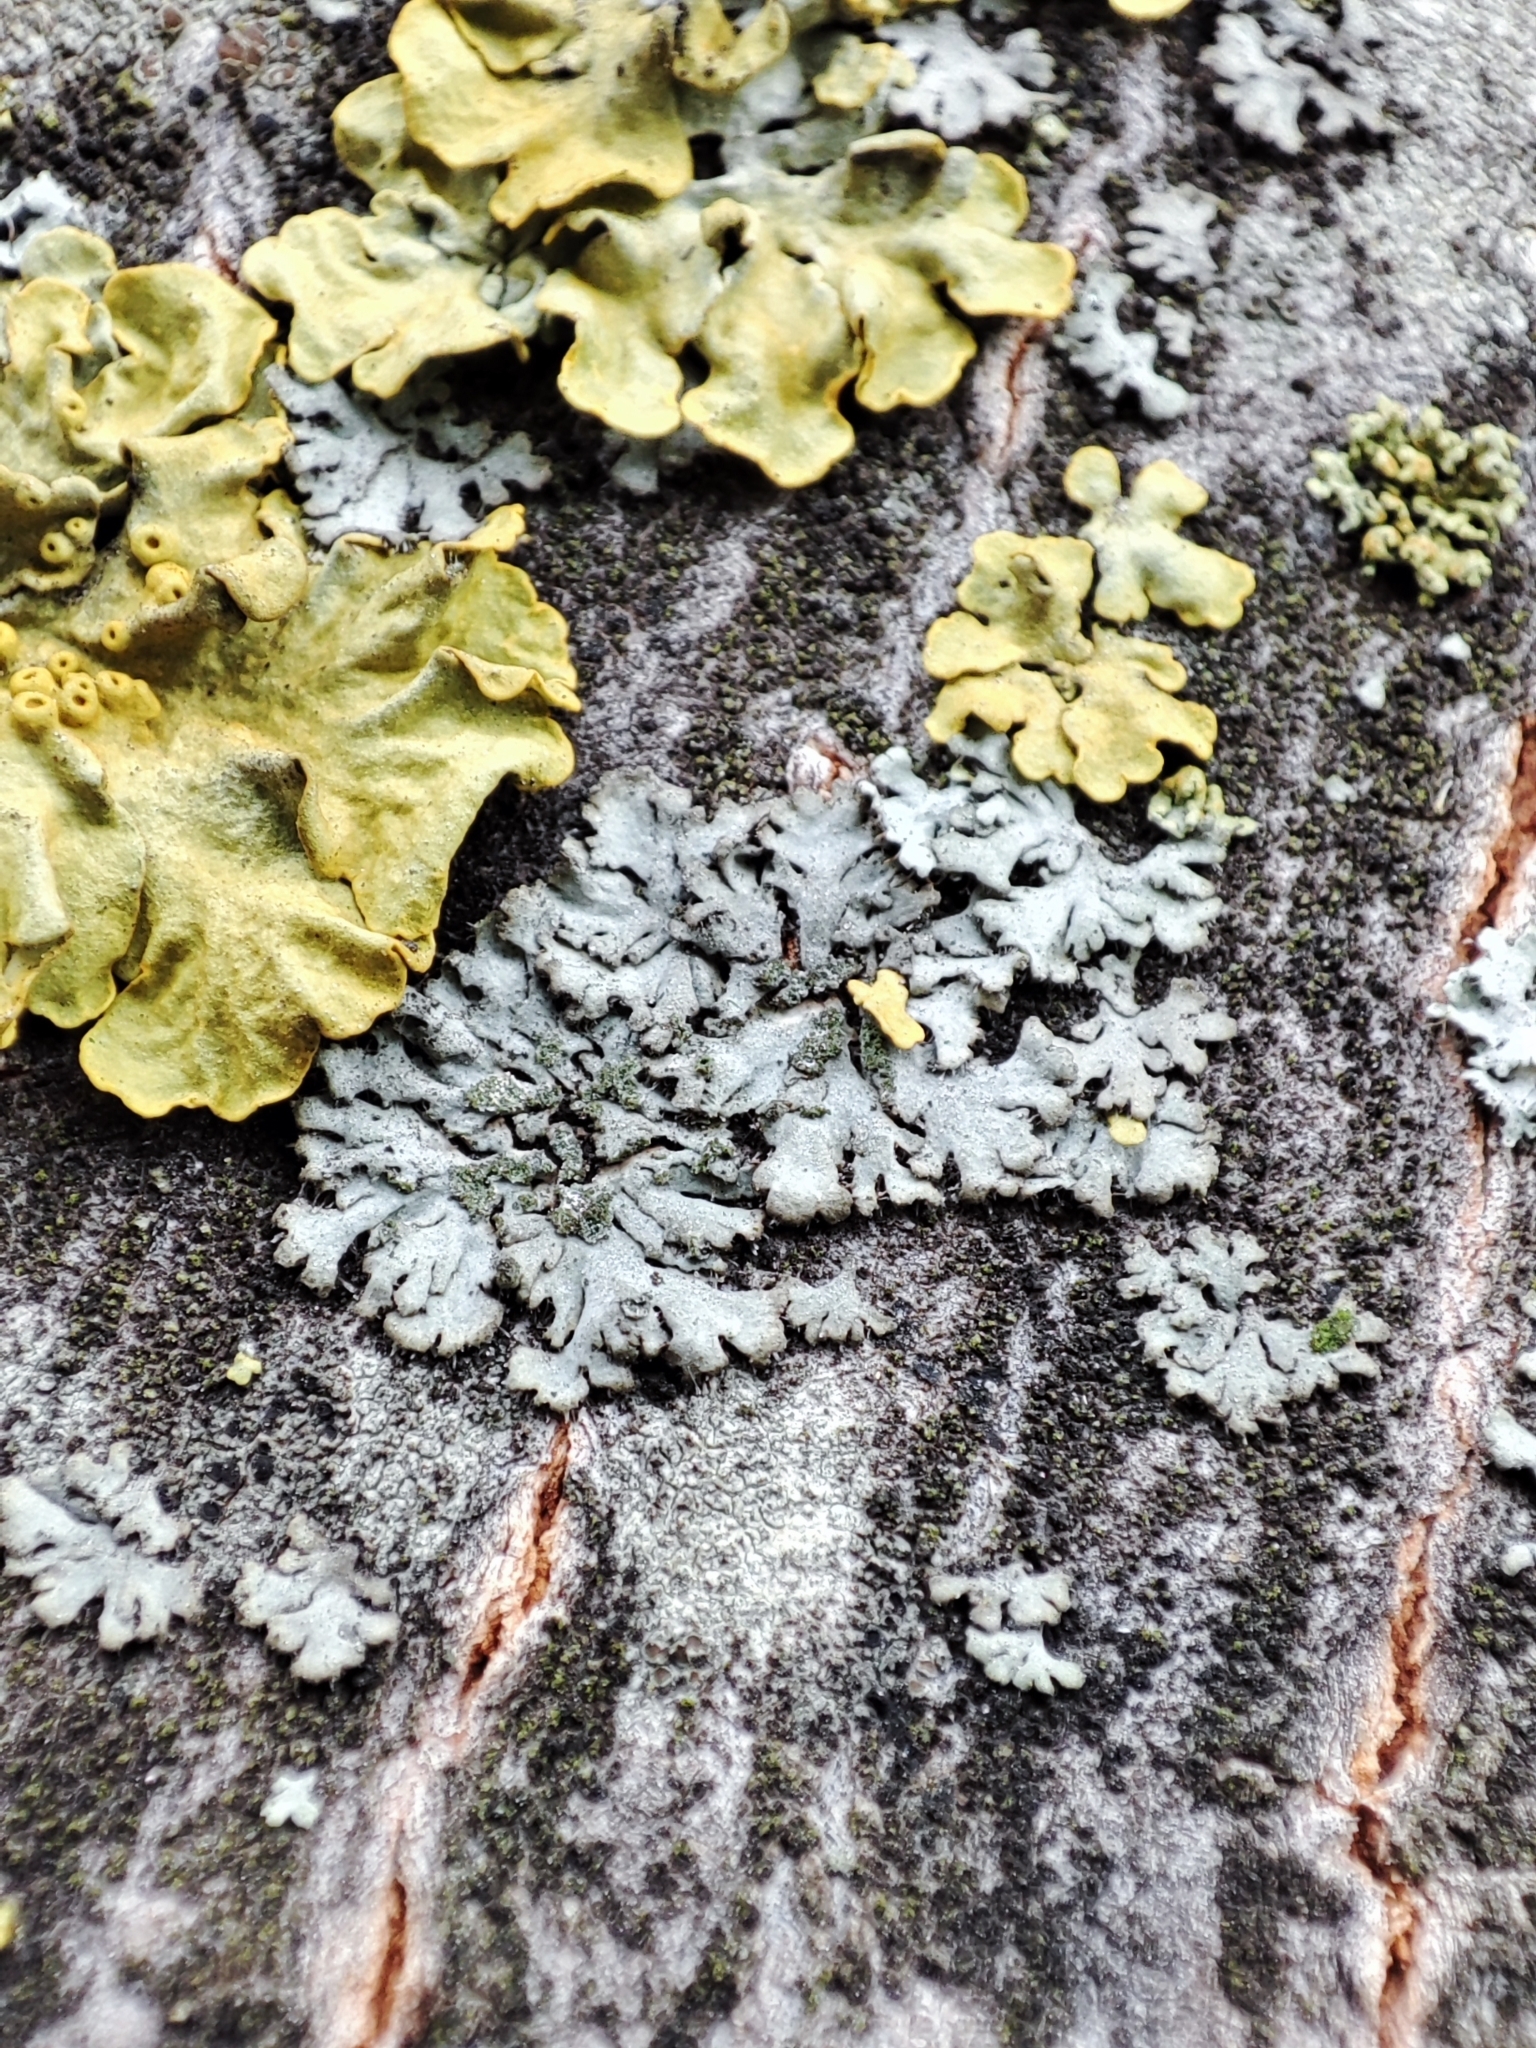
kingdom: Fungi
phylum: Ascomycota
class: Lecanoromycetes
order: Caliciales
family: Physciaceae
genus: Phaeophyscia
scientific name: Phaeophyscia orbicularis
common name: Mealy shadow lichen
